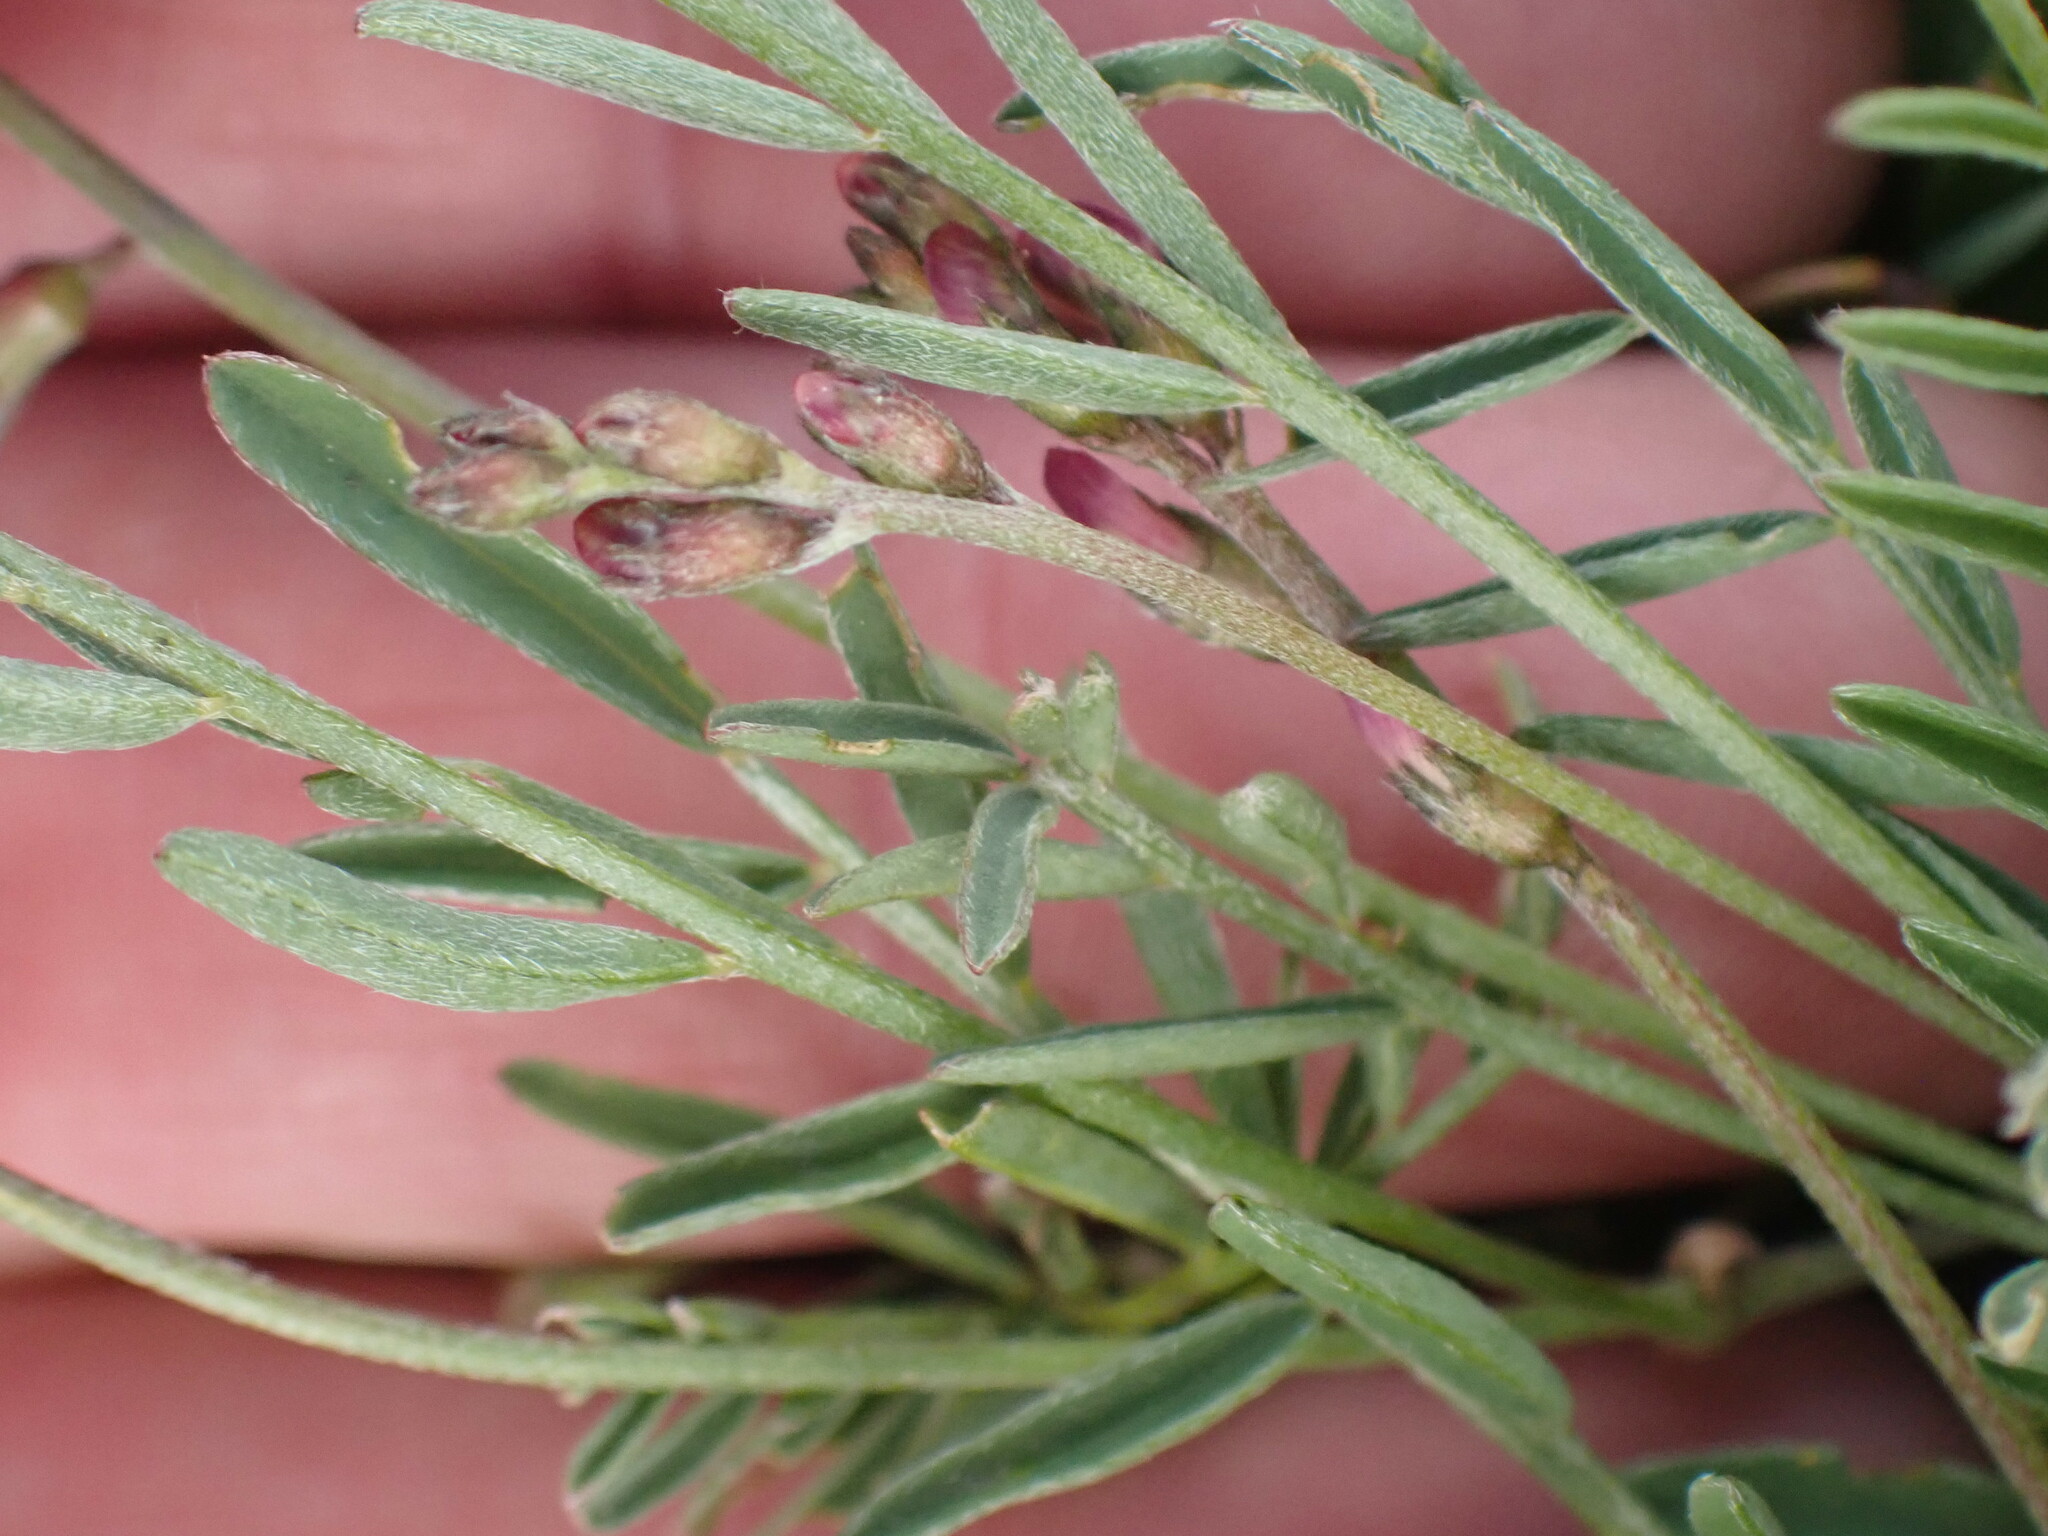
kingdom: Plantae
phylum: Tracheophyta
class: Magnoliopsida
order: Fabales
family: Fabaceae
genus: Astragalus
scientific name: Astragalus miser
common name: Timber milkvetch
